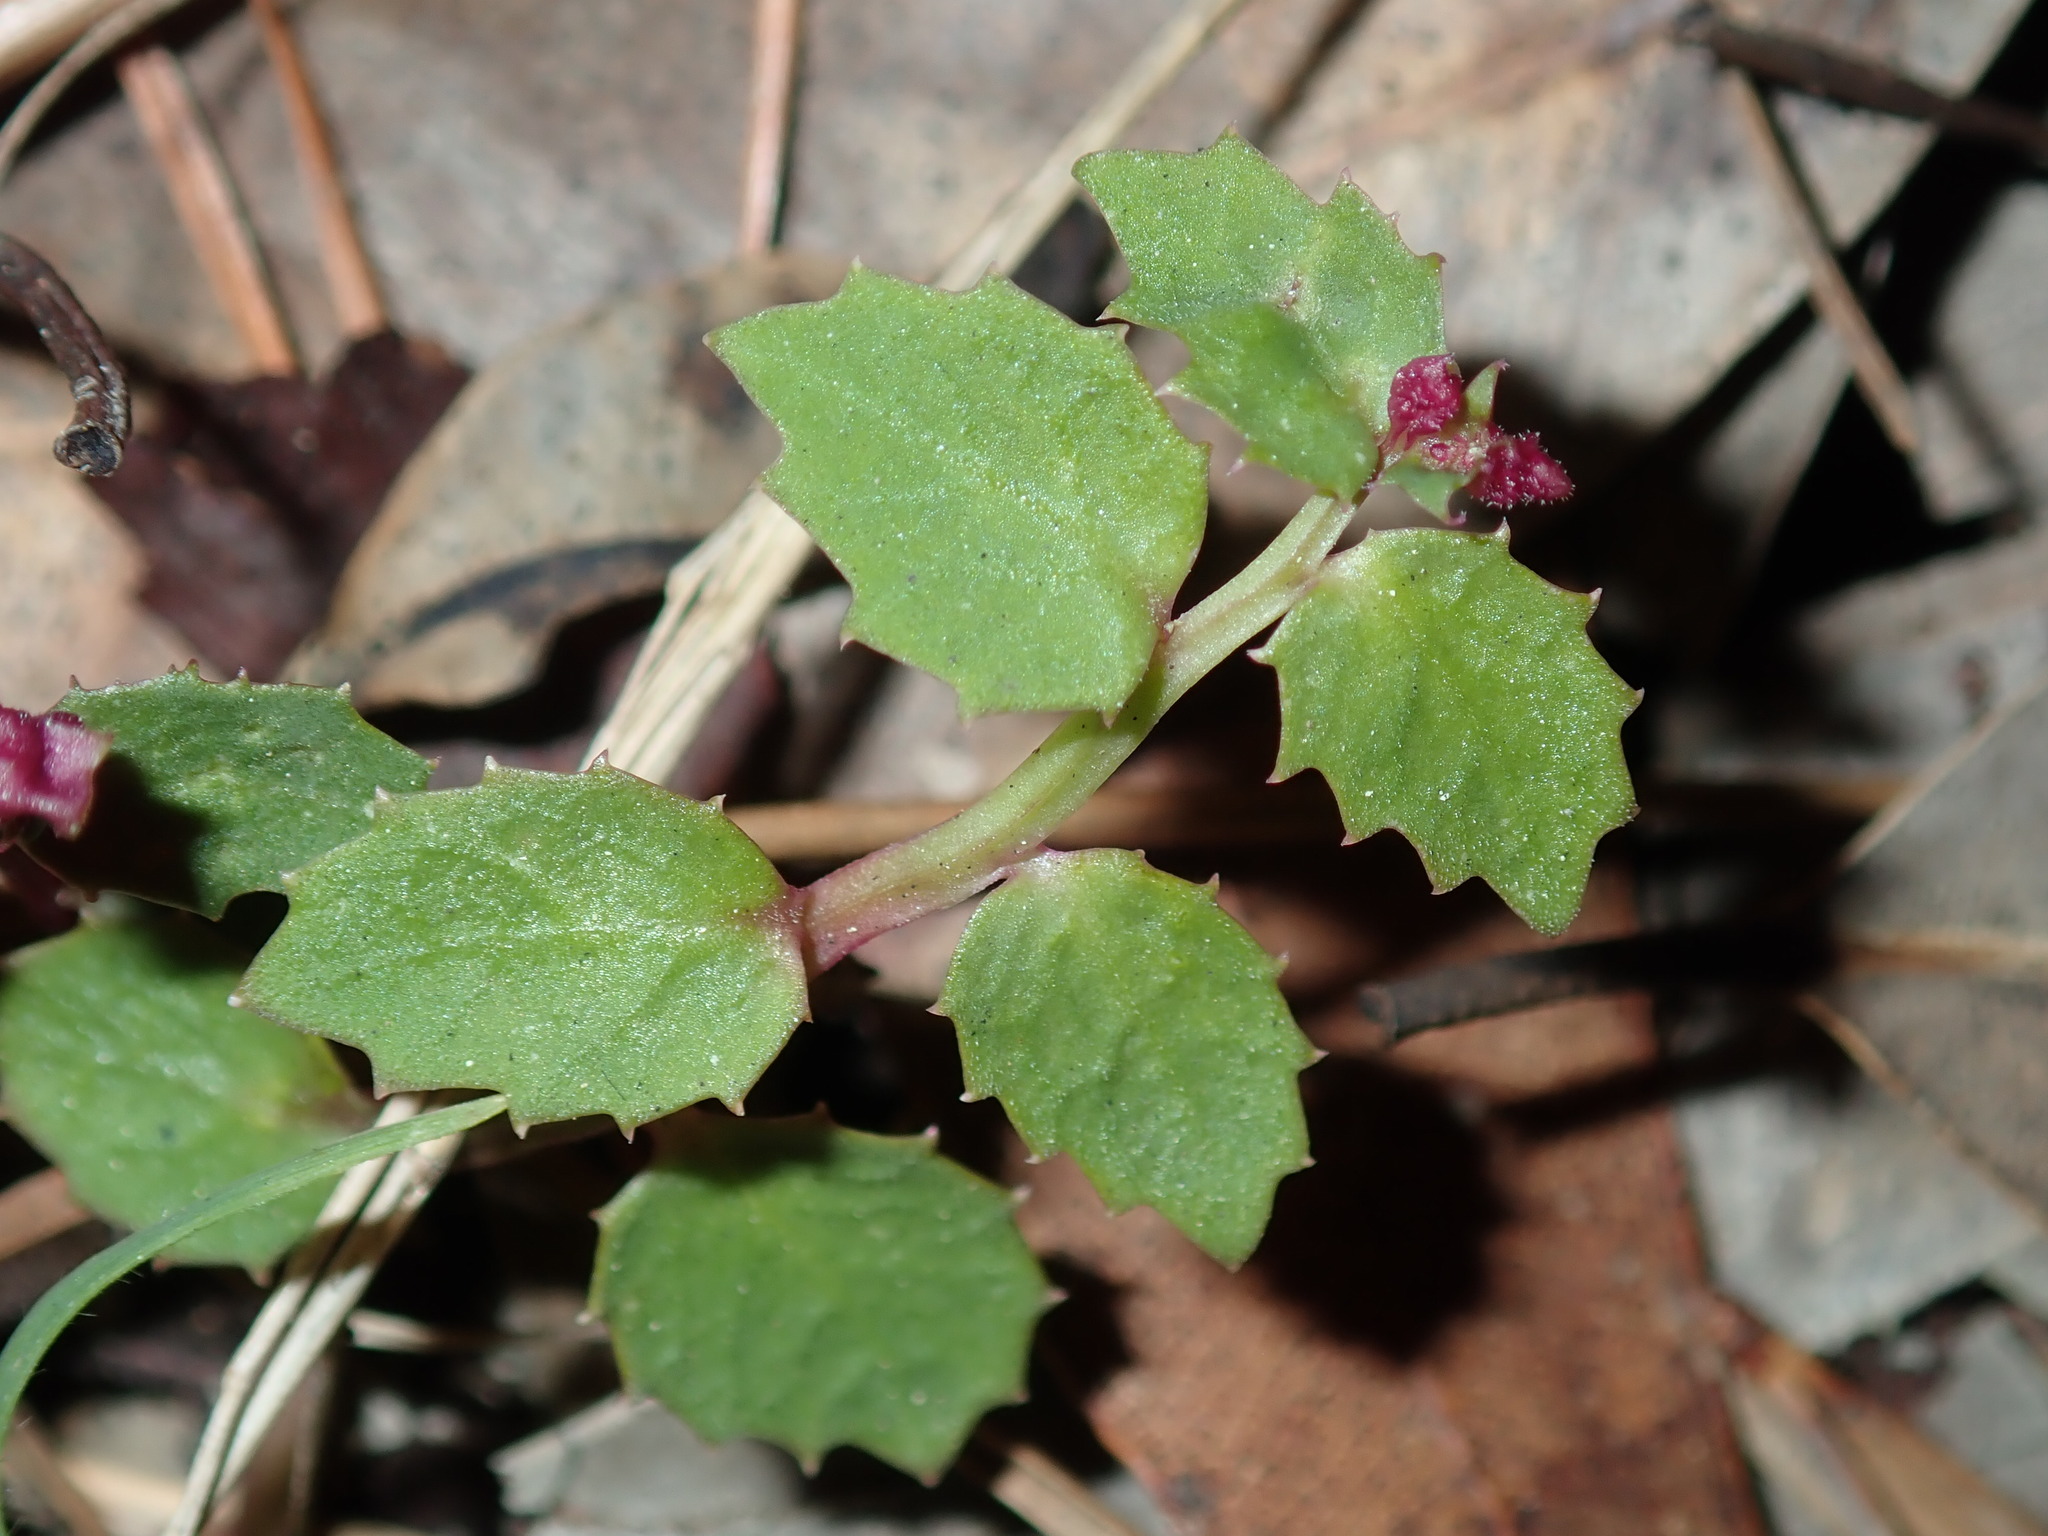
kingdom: Plantae
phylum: Tracheophyta
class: Magnoliopsida
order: Asterales
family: Campanulaceae
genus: Lobelia
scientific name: Lobelia purpurascens
